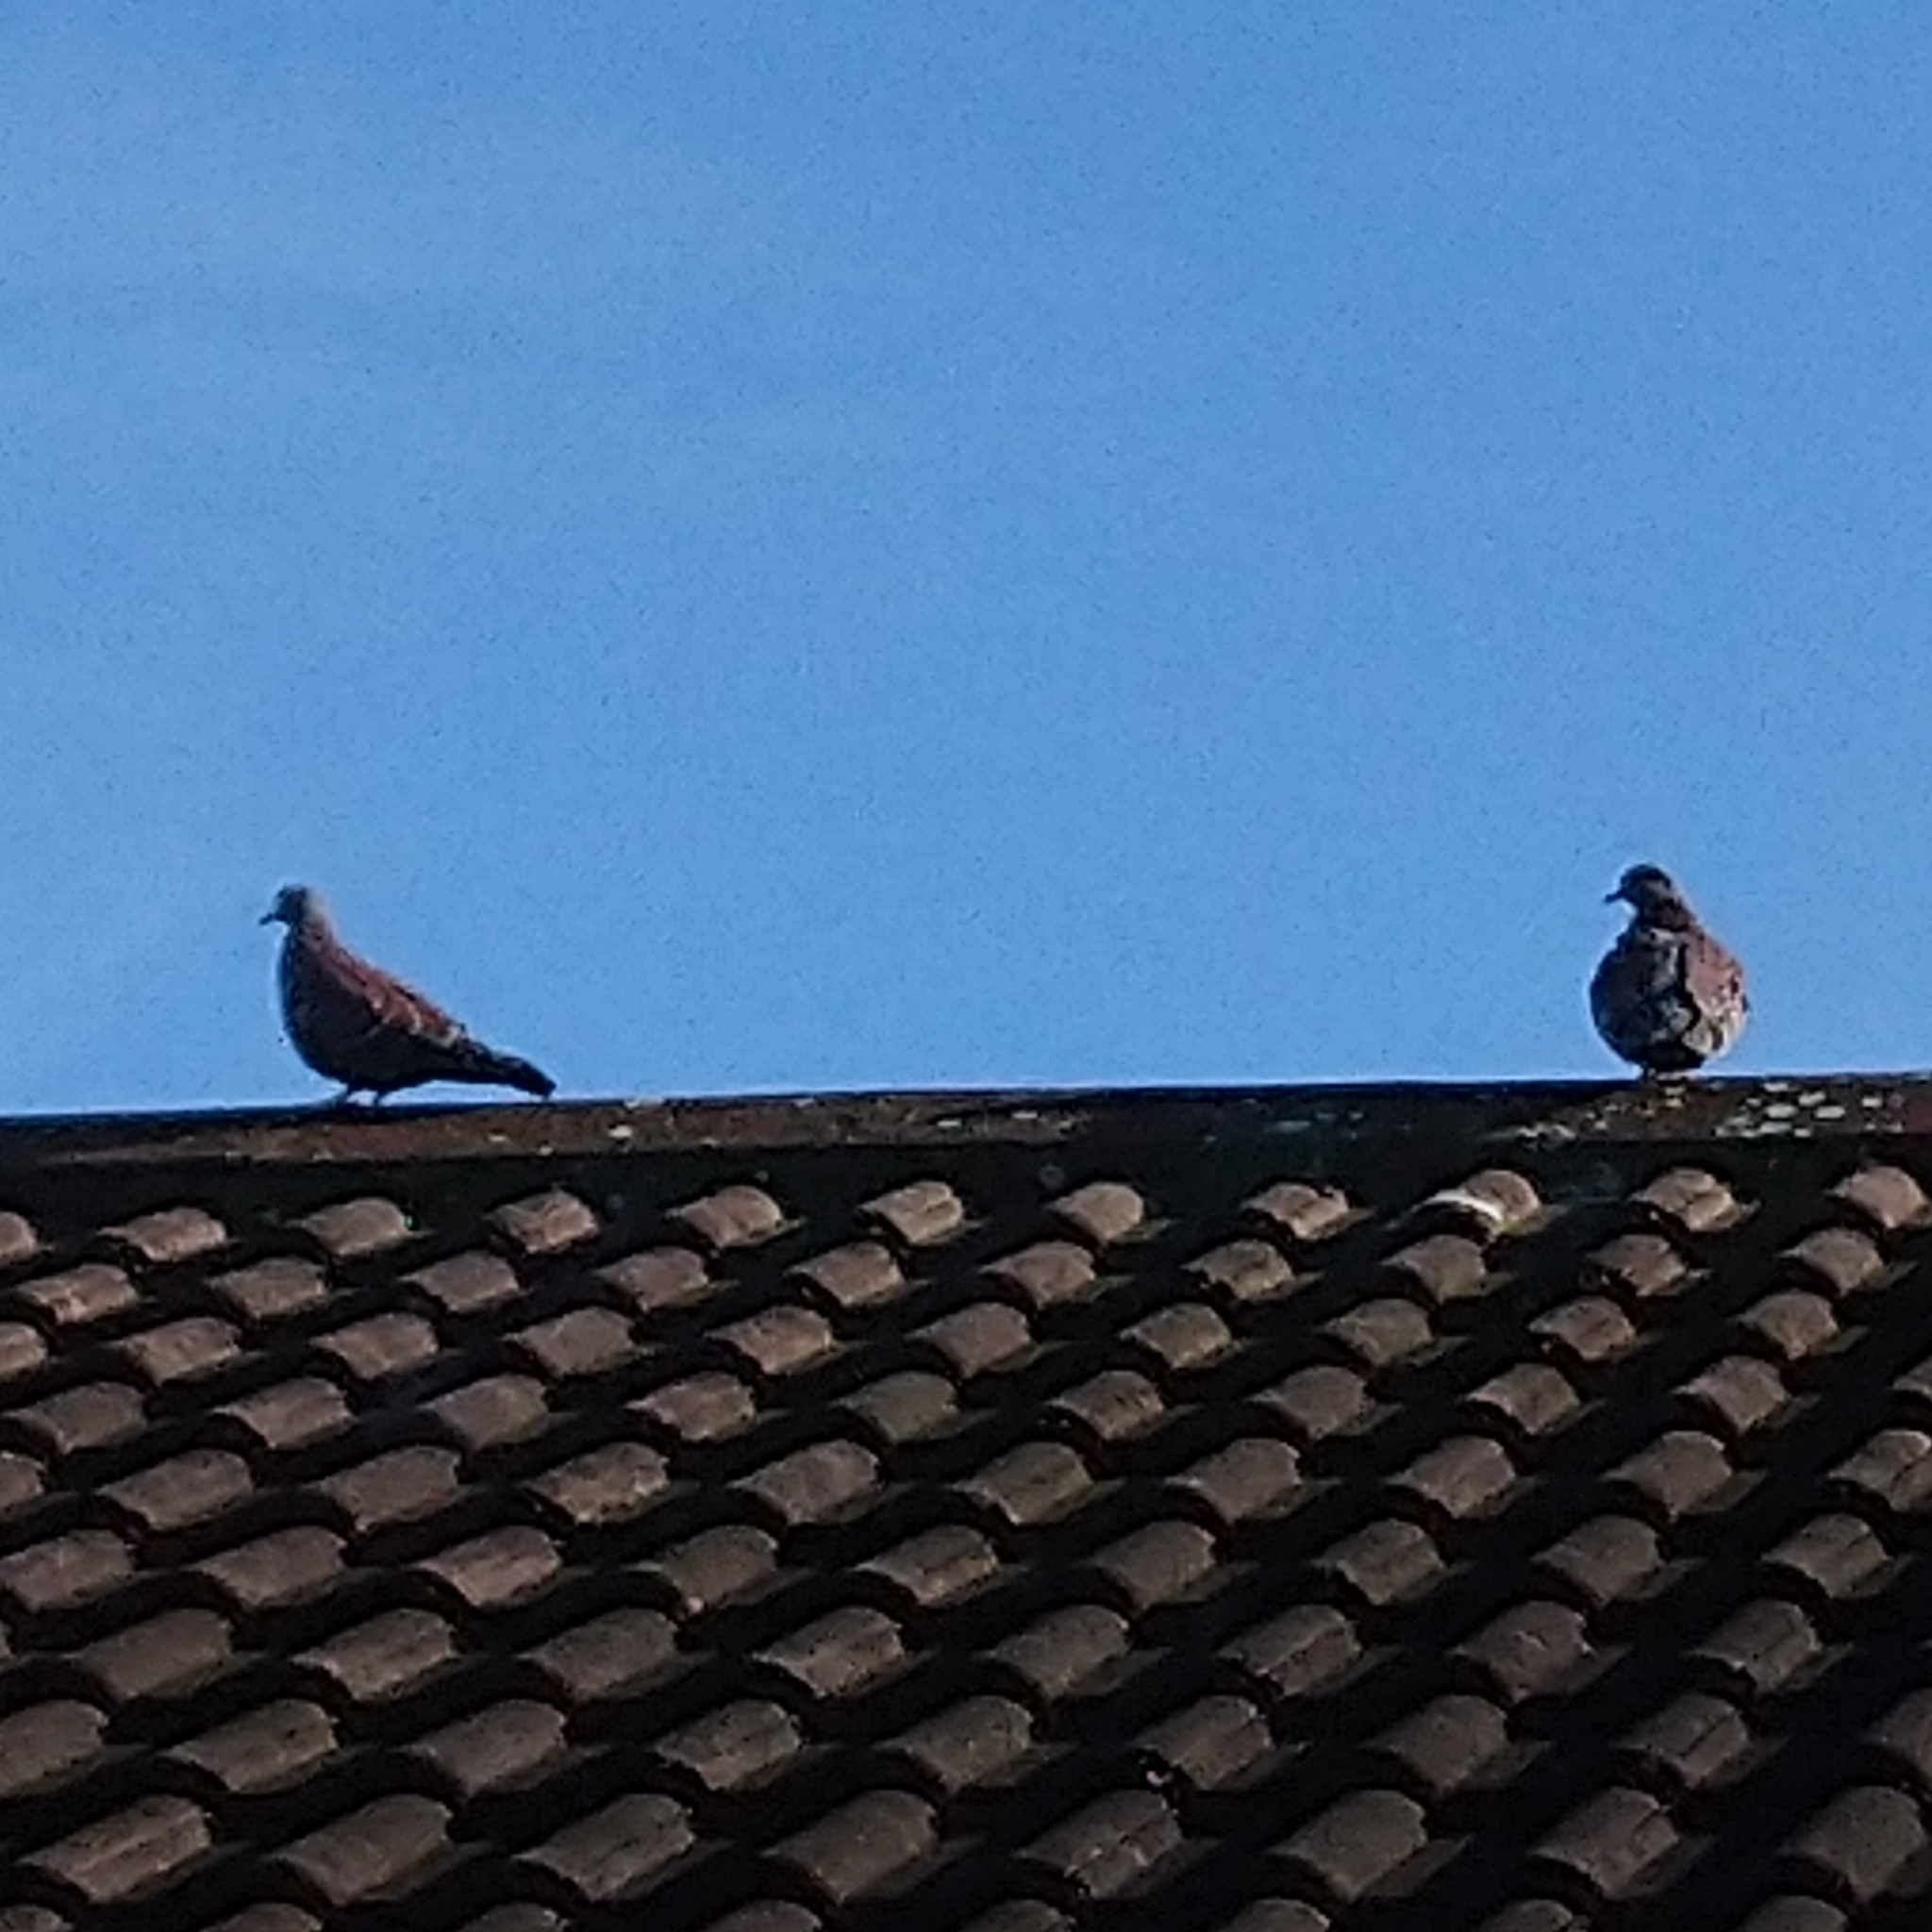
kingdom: Animalia
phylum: Chordata
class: Aves
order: Columbiformes
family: Columbidae
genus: Columba
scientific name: Columba guinea
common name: Speckled pigeon
